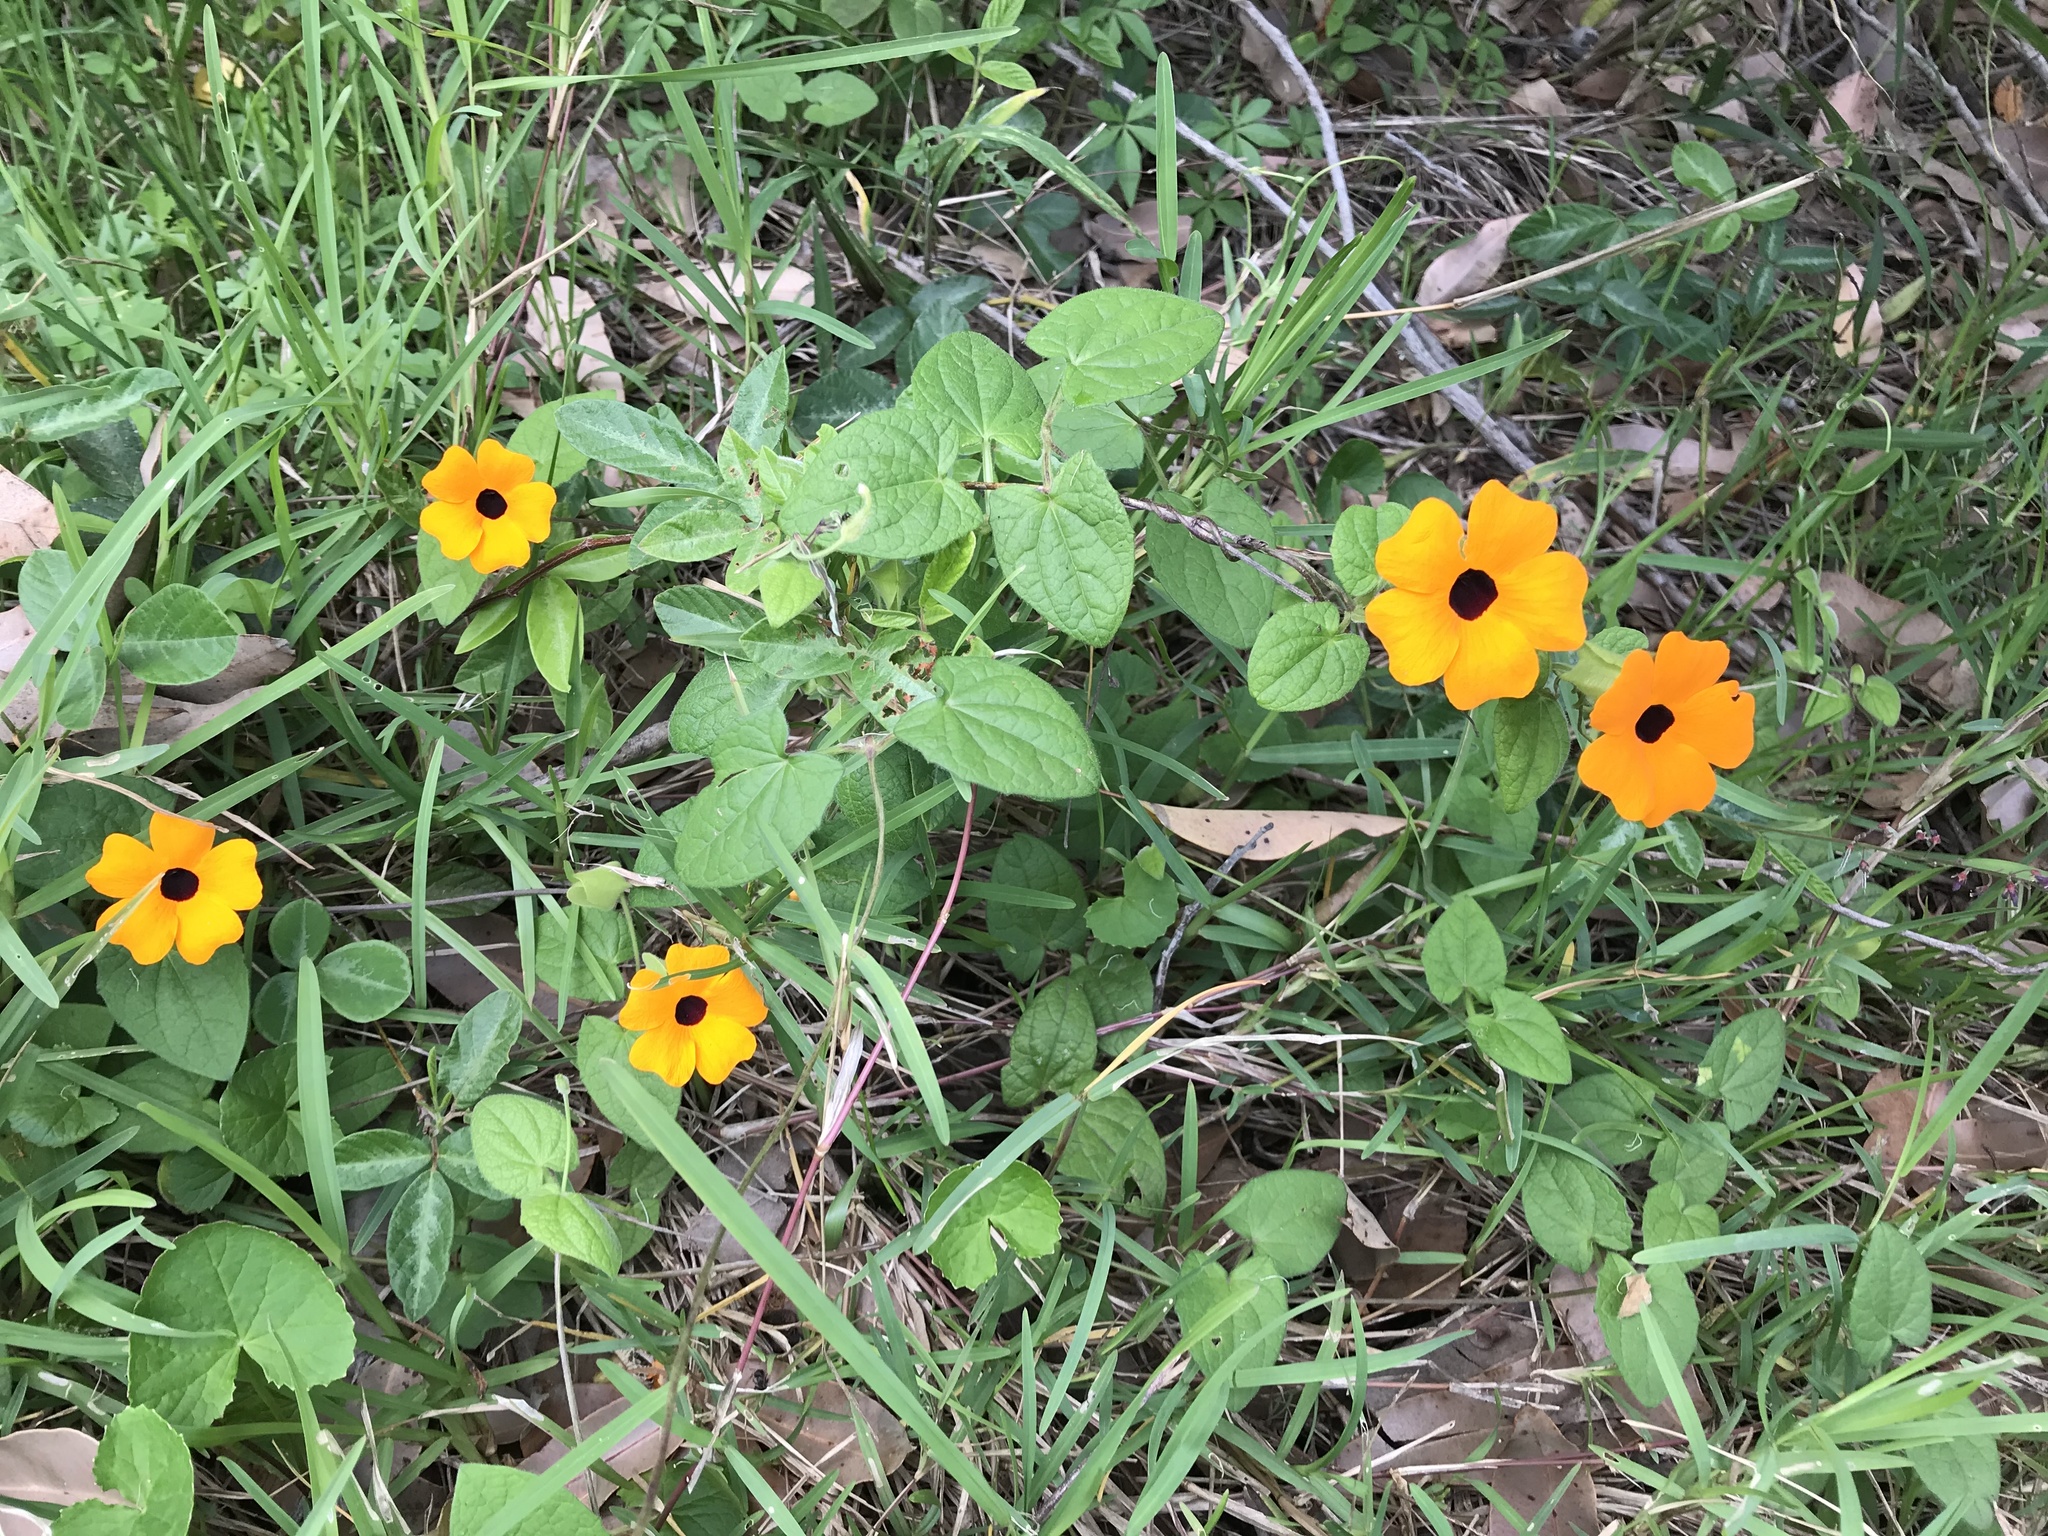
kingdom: Plantae
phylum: Tracheophyta
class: Magnoliopsida
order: Lamiales
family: Acanthaceae
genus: Thunbergia
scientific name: Thunbergia alata
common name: Blackeyed susan vine
